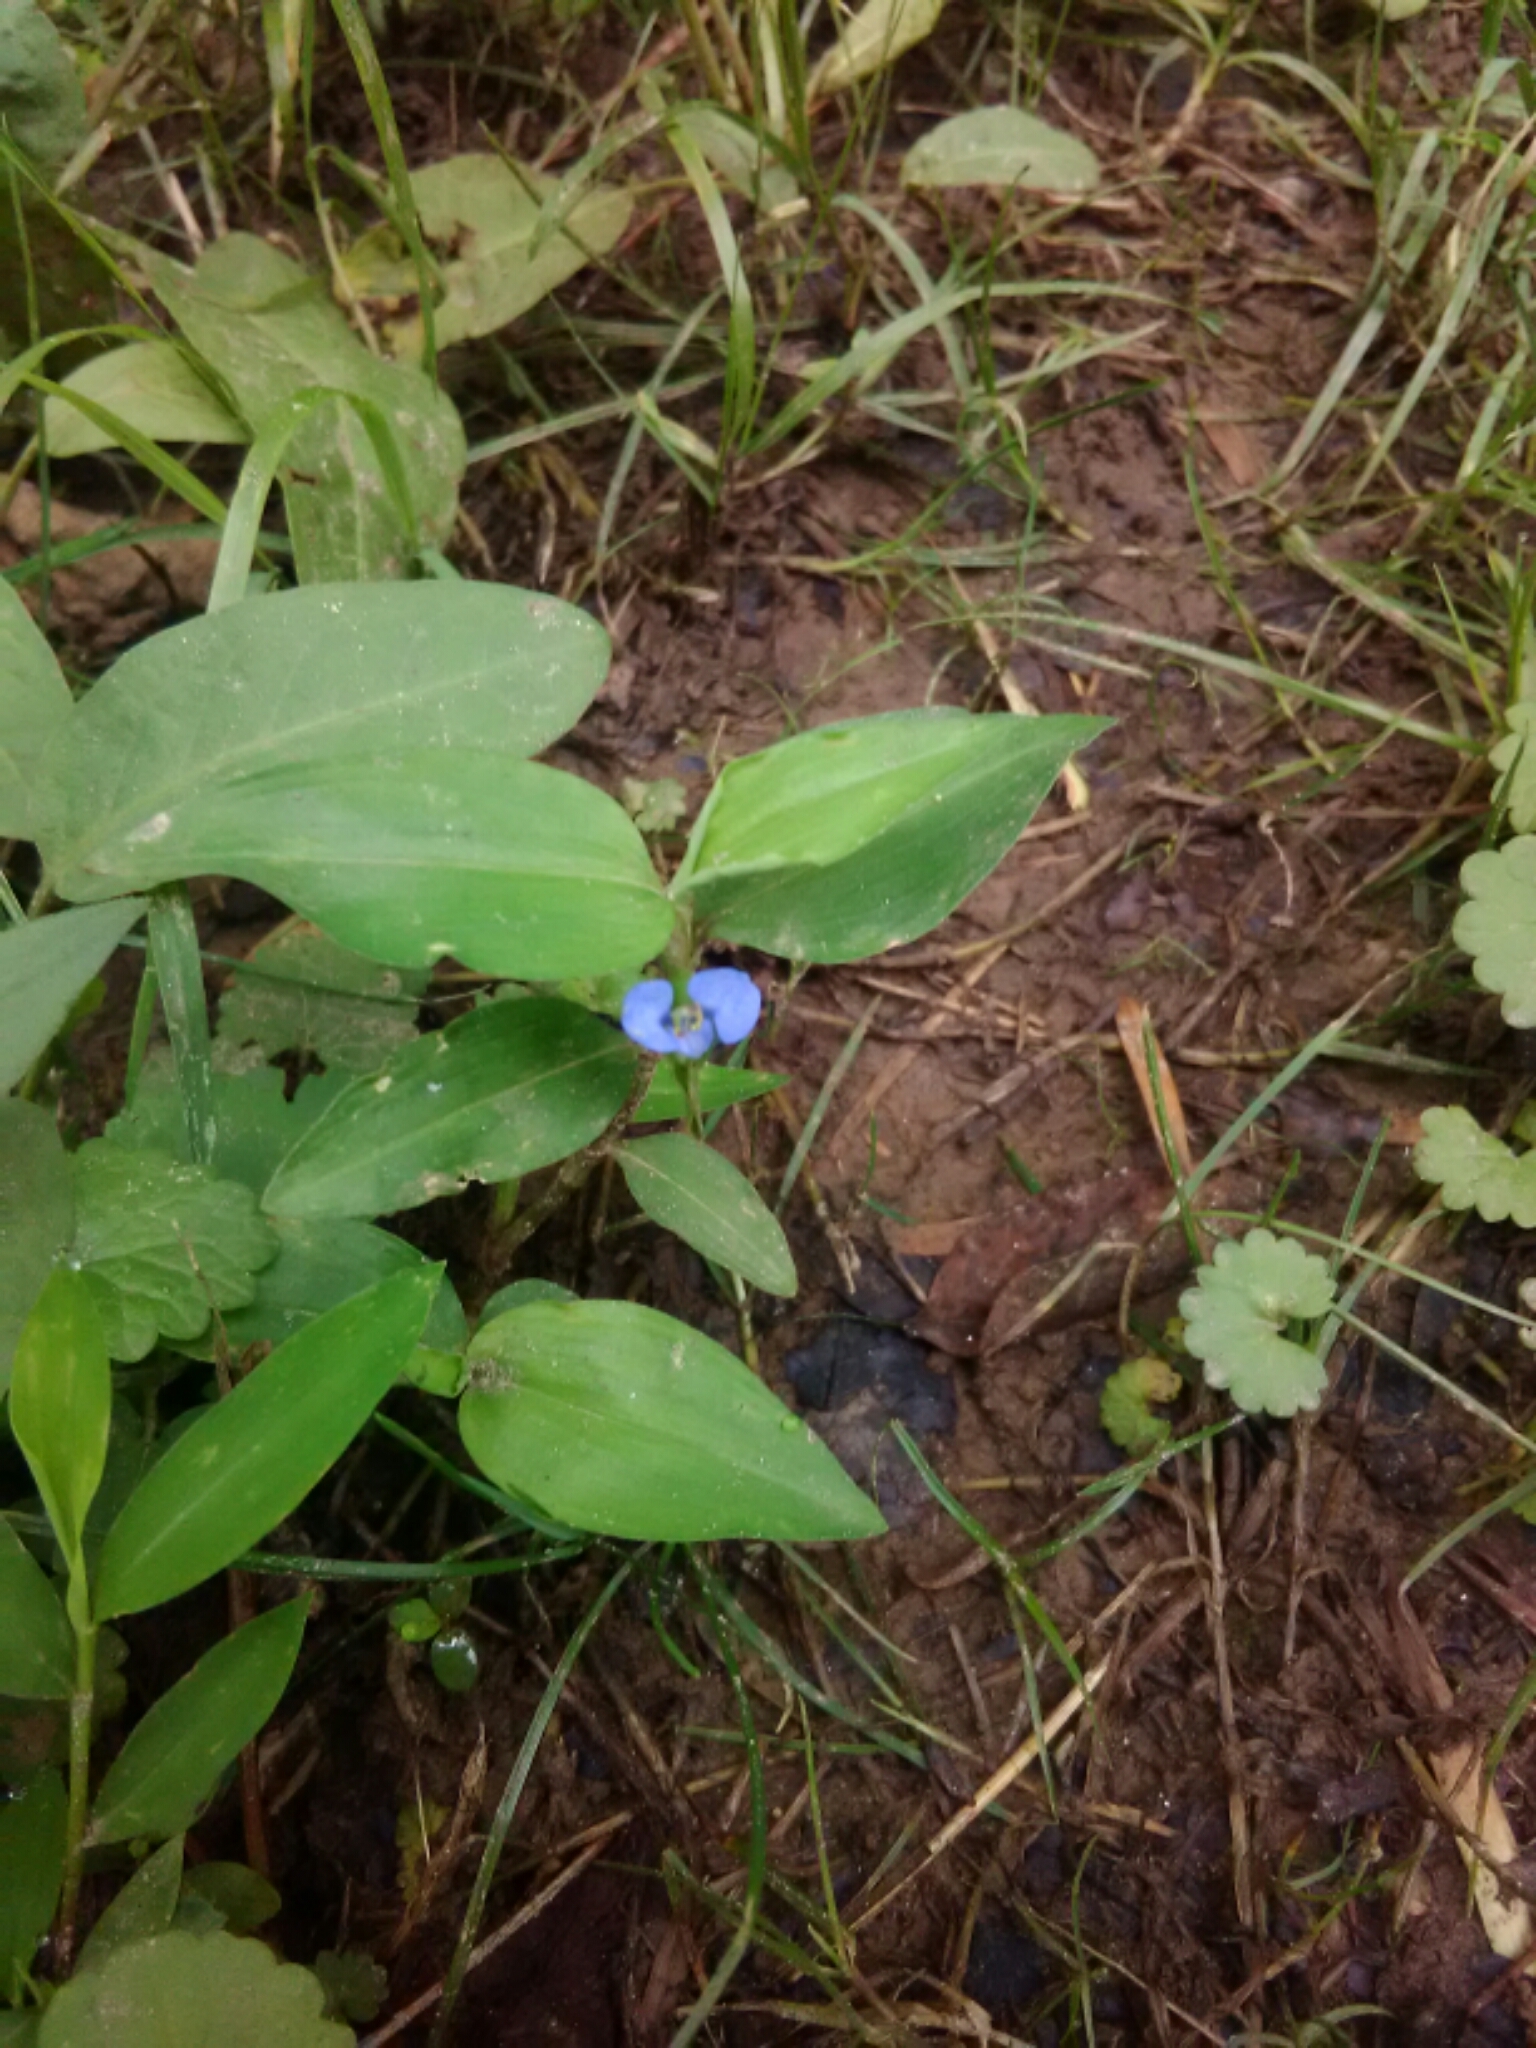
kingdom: Plantae
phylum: Tracheophyta
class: Liliopsida
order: Commelinales
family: Commelinaceae
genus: Commelina
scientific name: Commelina diffusa
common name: Climbing dayflower
